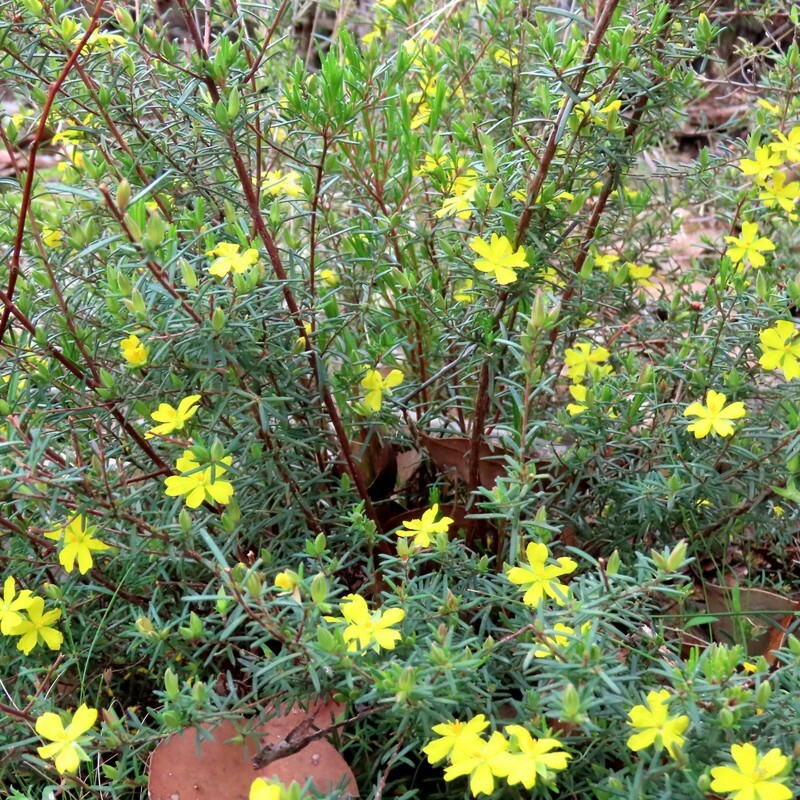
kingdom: Plantae
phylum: Tracheophyta
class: Magnoliopsida
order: Dilleniales
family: Dilleniaceae
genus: Hibbertia
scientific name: Hibbertia riparia
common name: Erect guinea-flower
